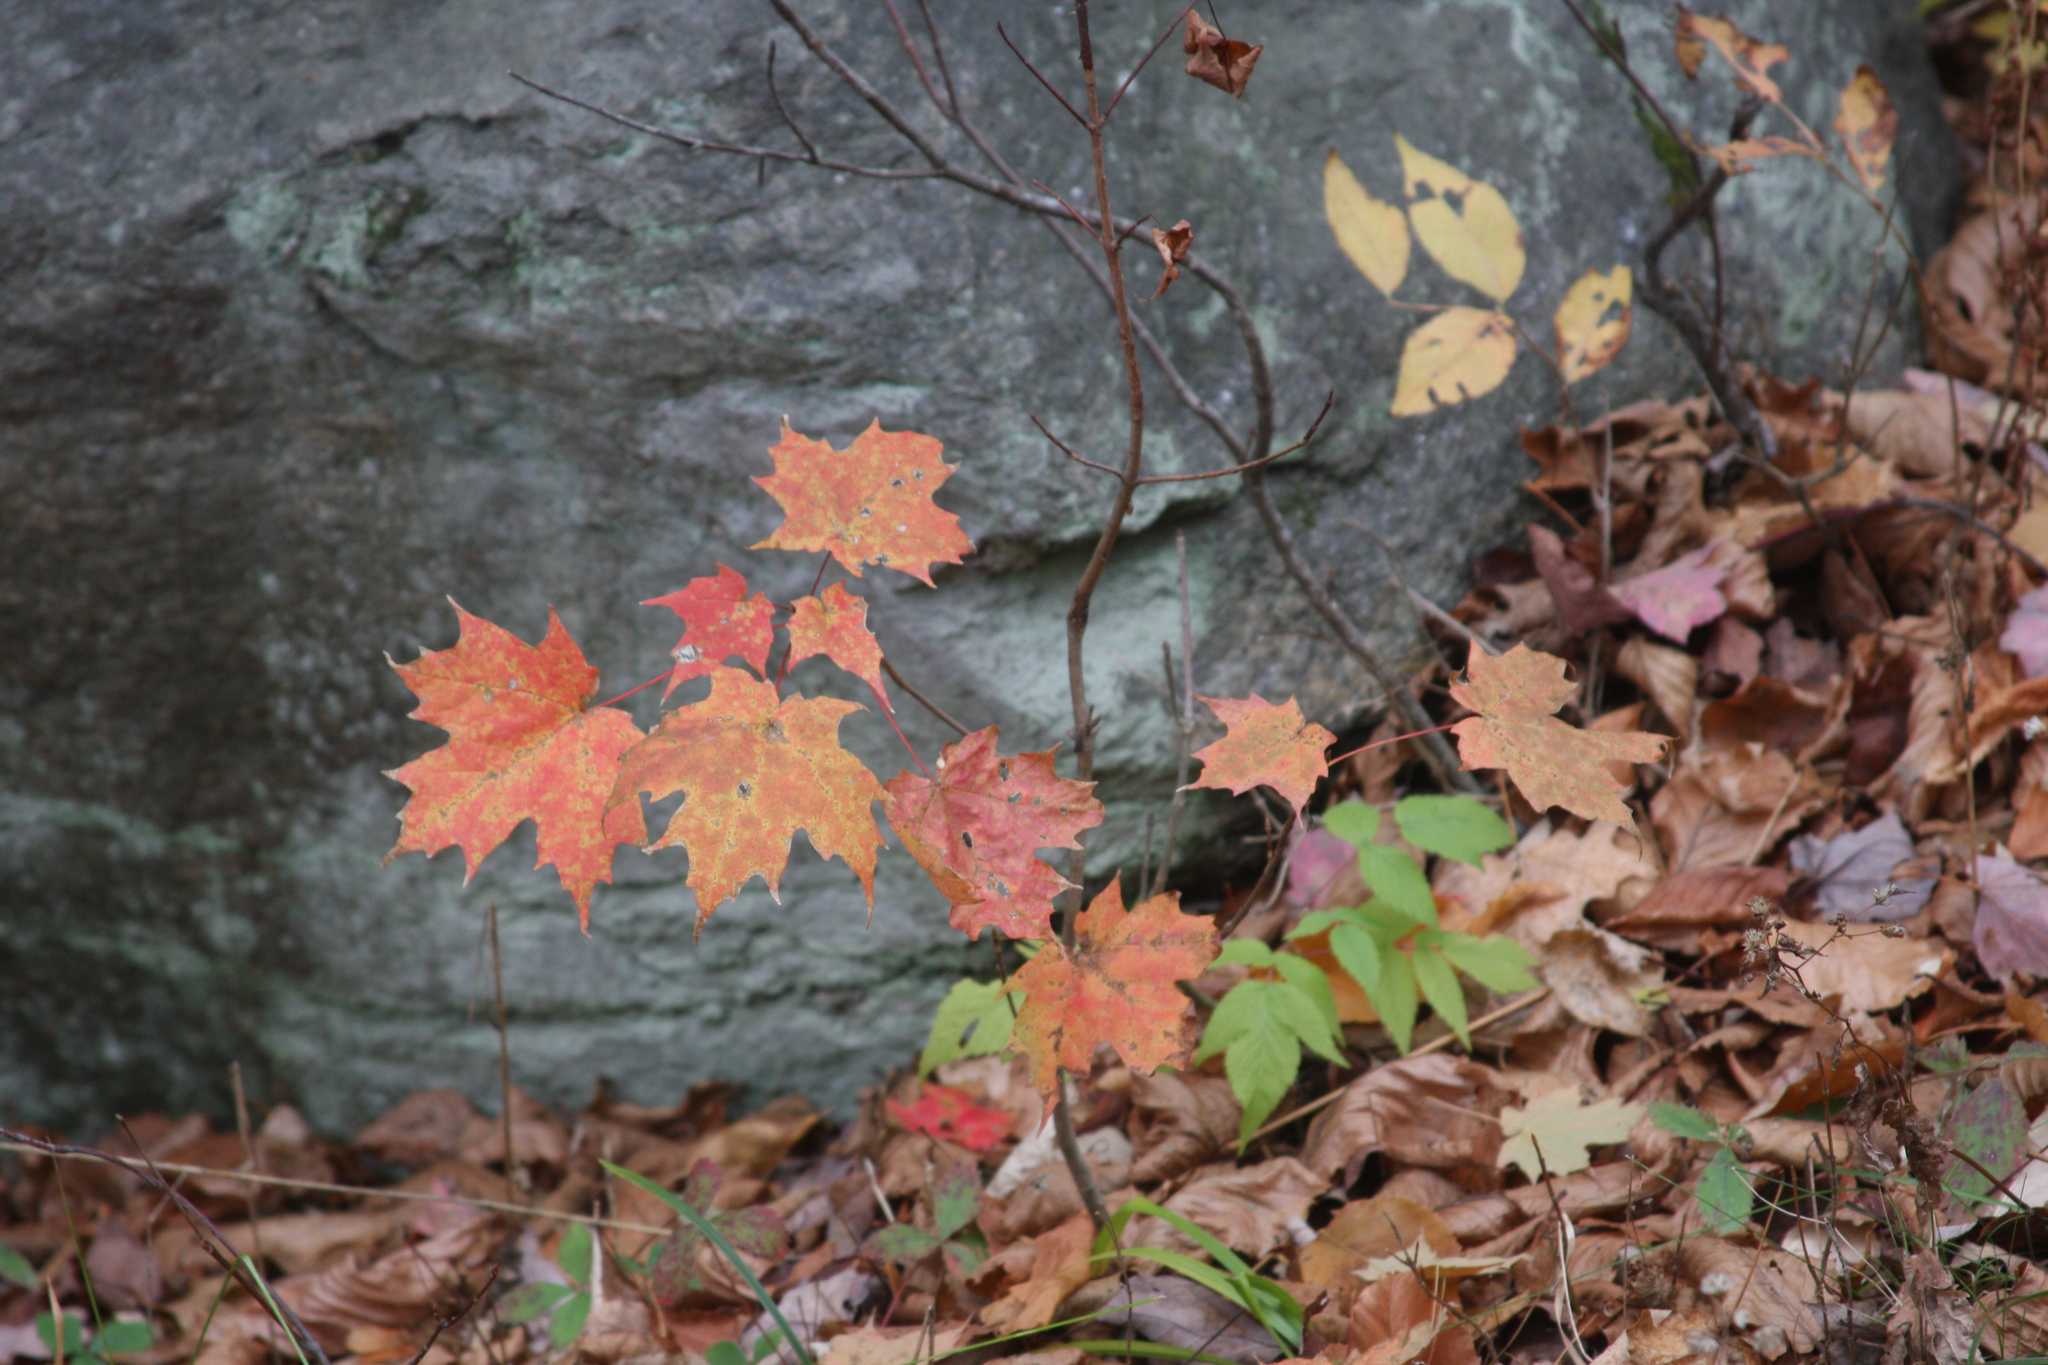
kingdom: Plantae
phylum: Tracheophyta
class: Magnoliopsida
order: Sapindales
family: Sapindaceae
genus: Acer
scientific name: Acer saccharum
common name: Sugar maple
